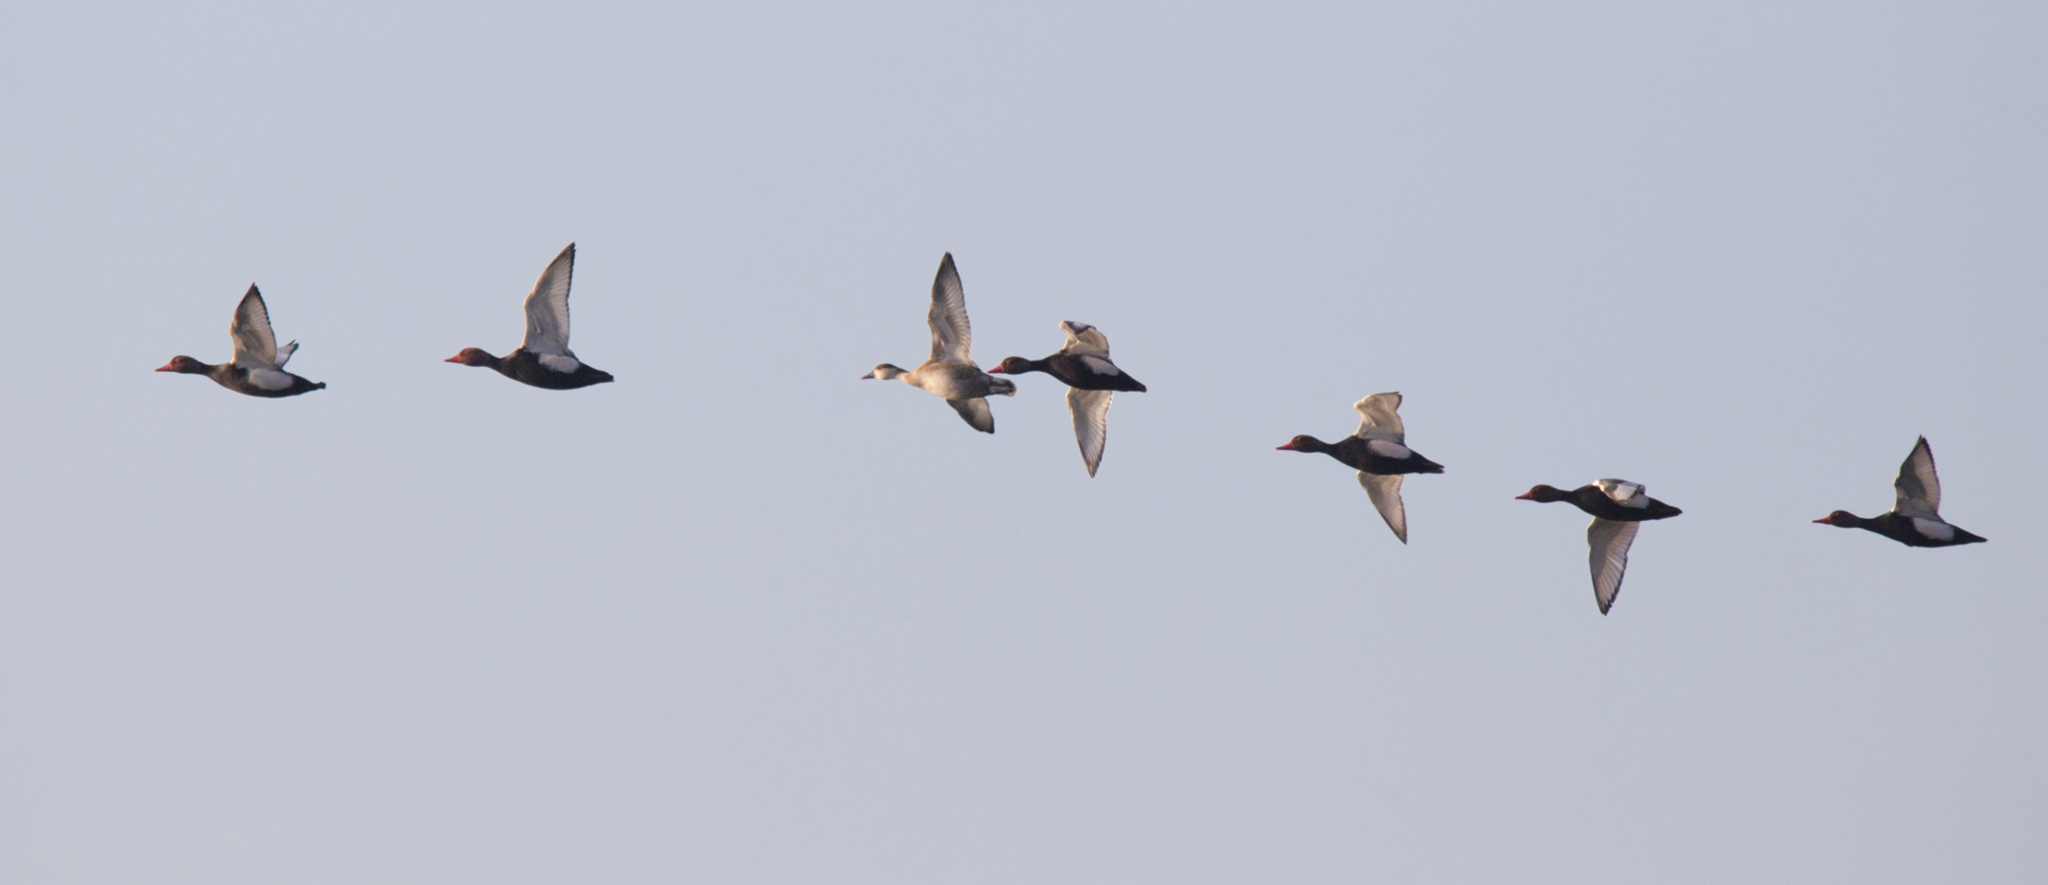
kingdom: Animalia
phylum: Chordata
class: Aves
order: Anseriformes
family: Anatidae
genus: Netta
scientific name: Netta rufina
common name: Red-crested pochard
